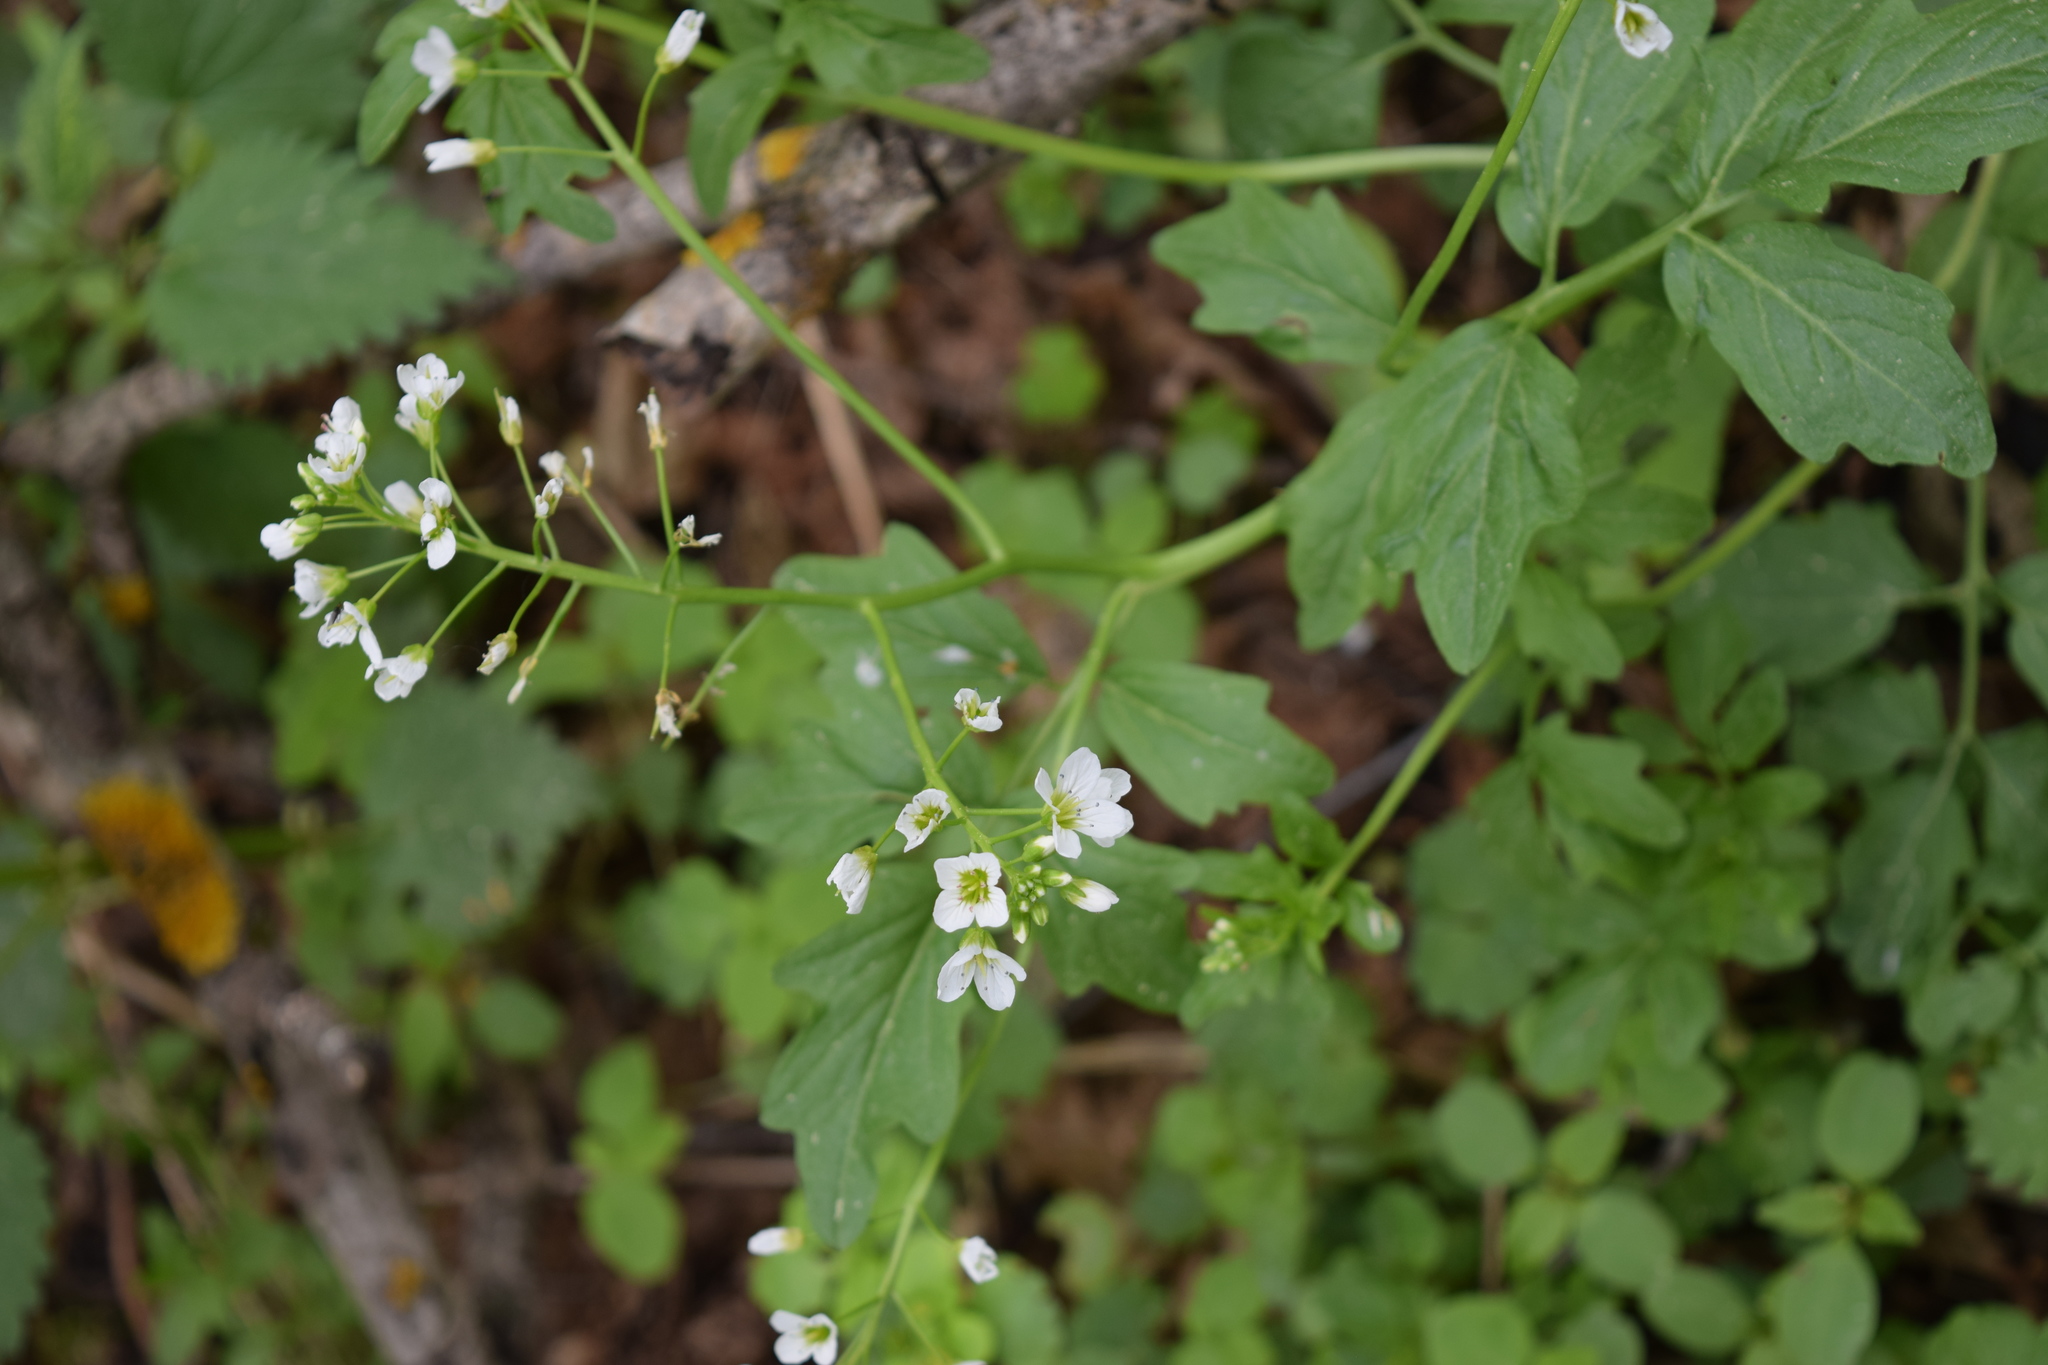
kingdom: Plantae
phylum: Tracheophyta
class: Magnoliopsida
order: Brassicales
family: Brassicaceae
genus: Cardamine
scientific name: Cardamine amara
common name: Large bitter-cress
